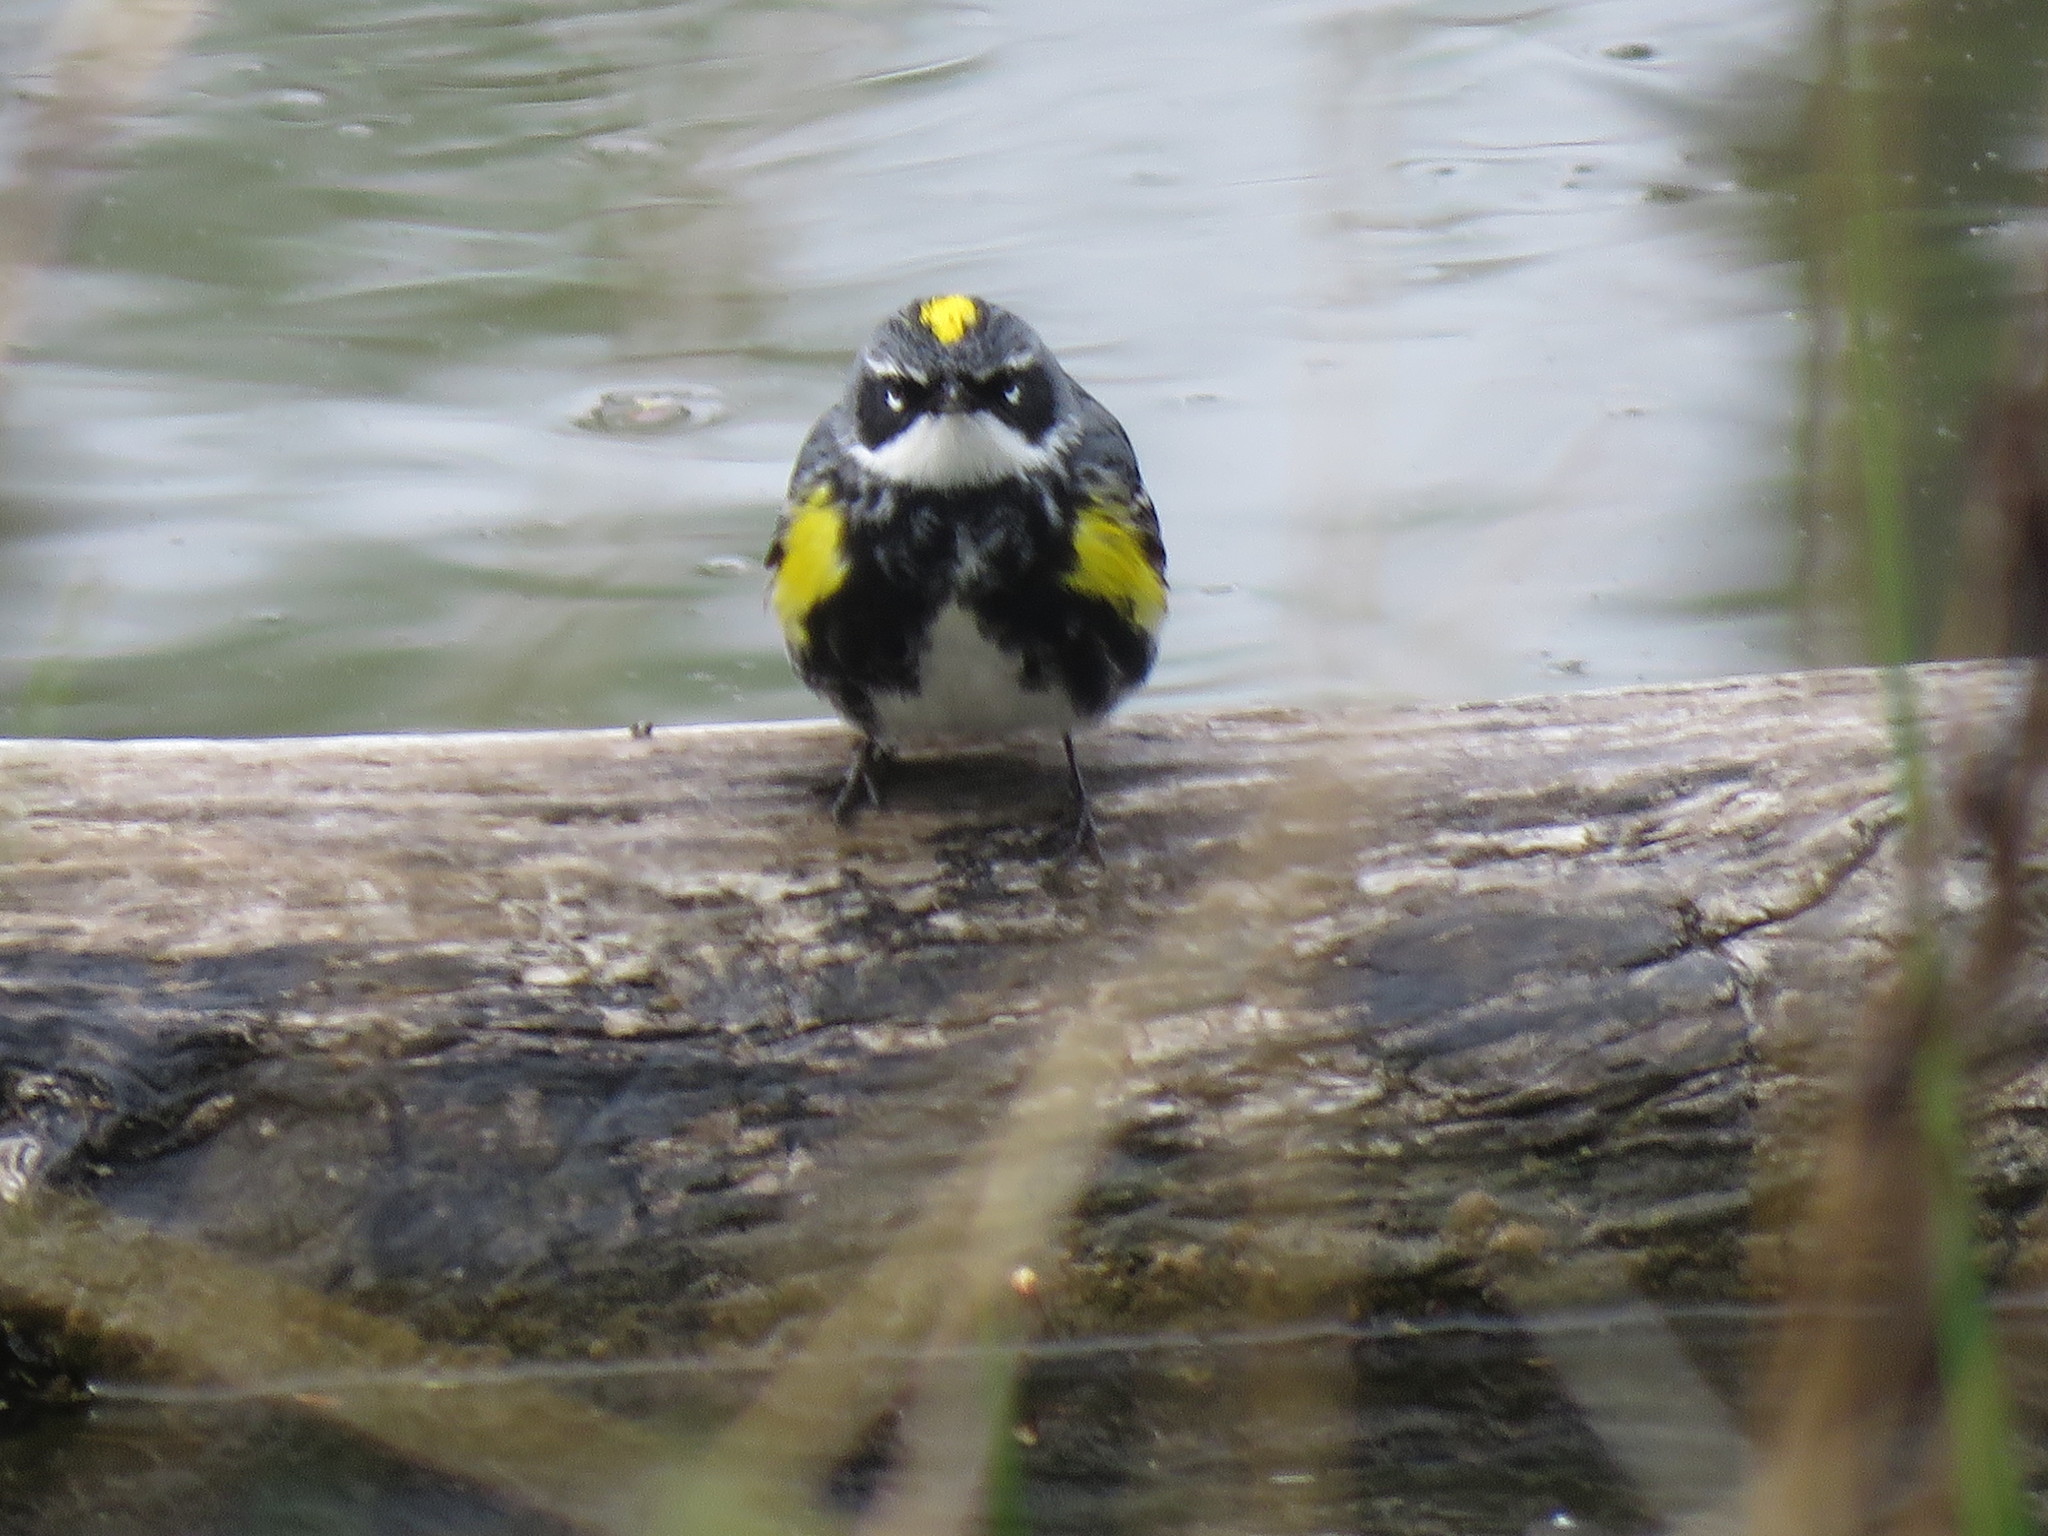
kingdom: Animalia
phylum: Chordata
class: Aves
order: Passeriformes
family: Parulidae
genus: Setophaga
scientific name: Setophaga coronata
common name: Myrtle warbler
